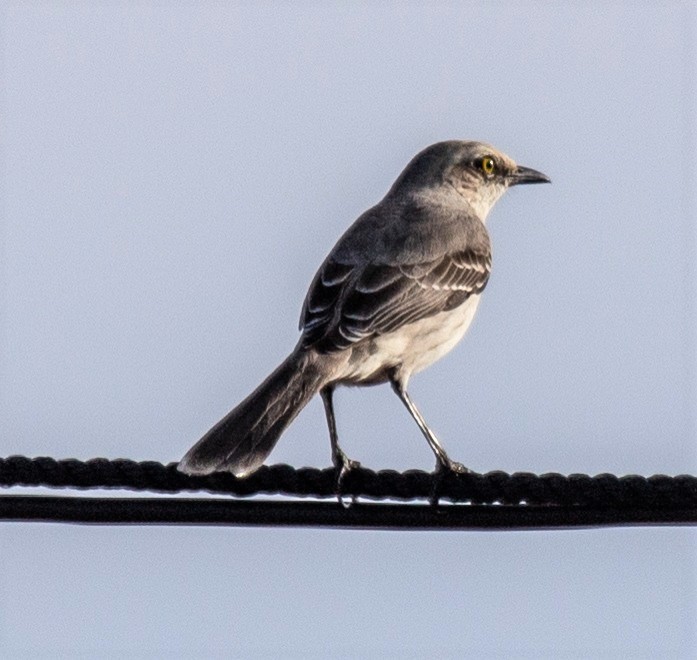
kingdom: Animalia
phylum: Chordata
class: Aves
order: Passeriformes
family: Mimidae
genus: Mimus
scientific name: Mimus gilvus
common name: Tropical mockingbird
